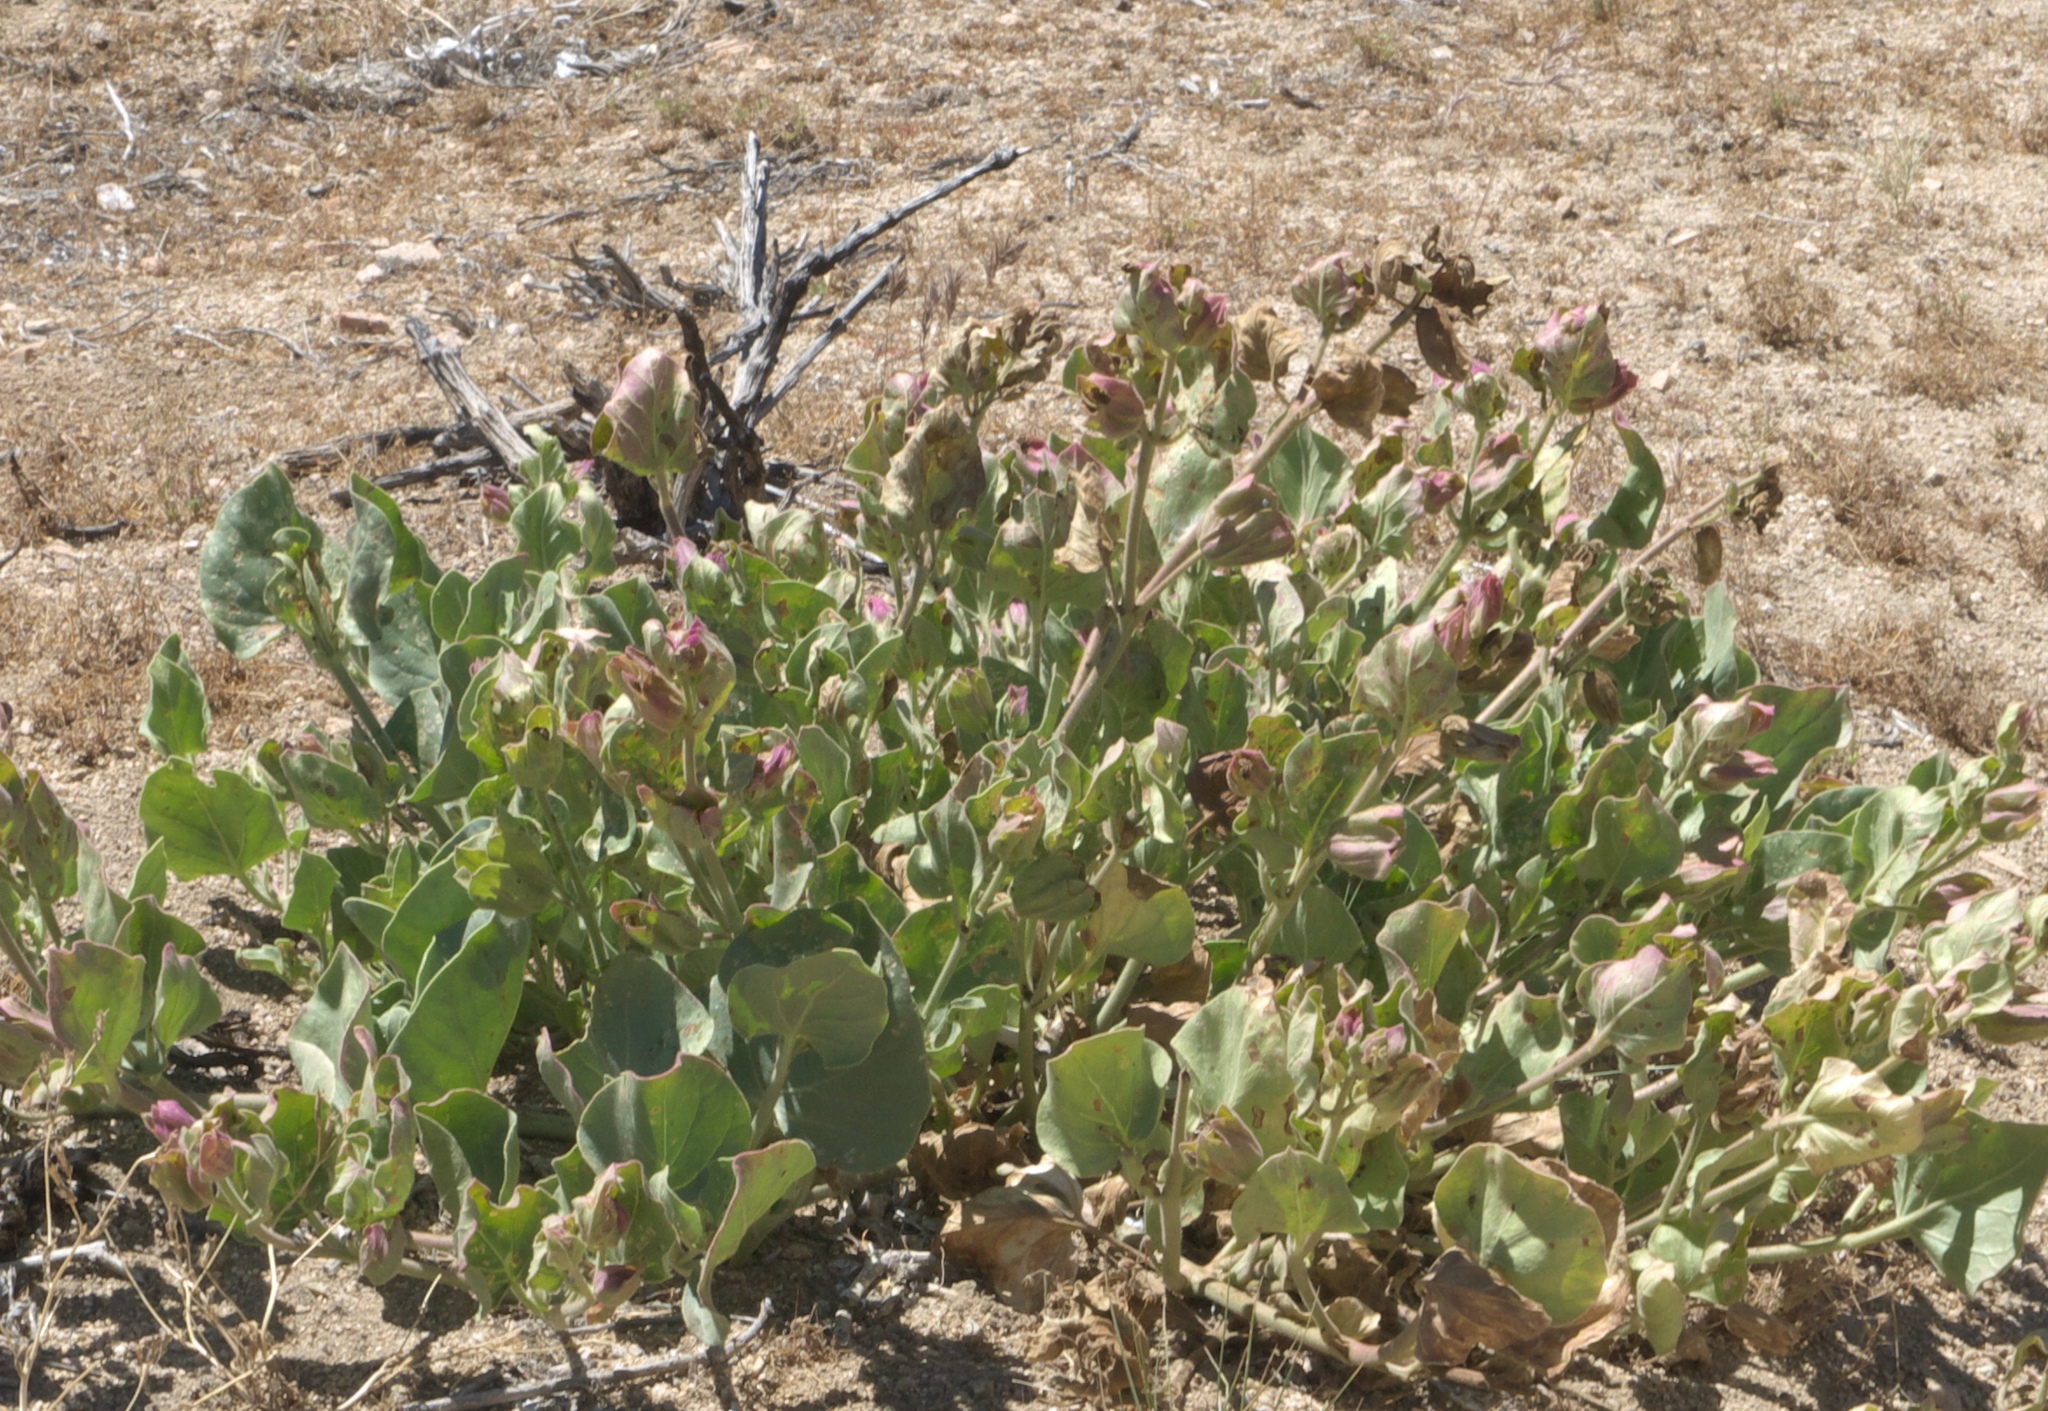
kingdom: Plantae
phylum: Tracheophyta
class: Magnoliopsida
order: Caryophyllales
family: Nyctaginaceae
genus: Mirabilis
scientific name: Mirabilis multiflora
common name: Froebel's four-o'clock
